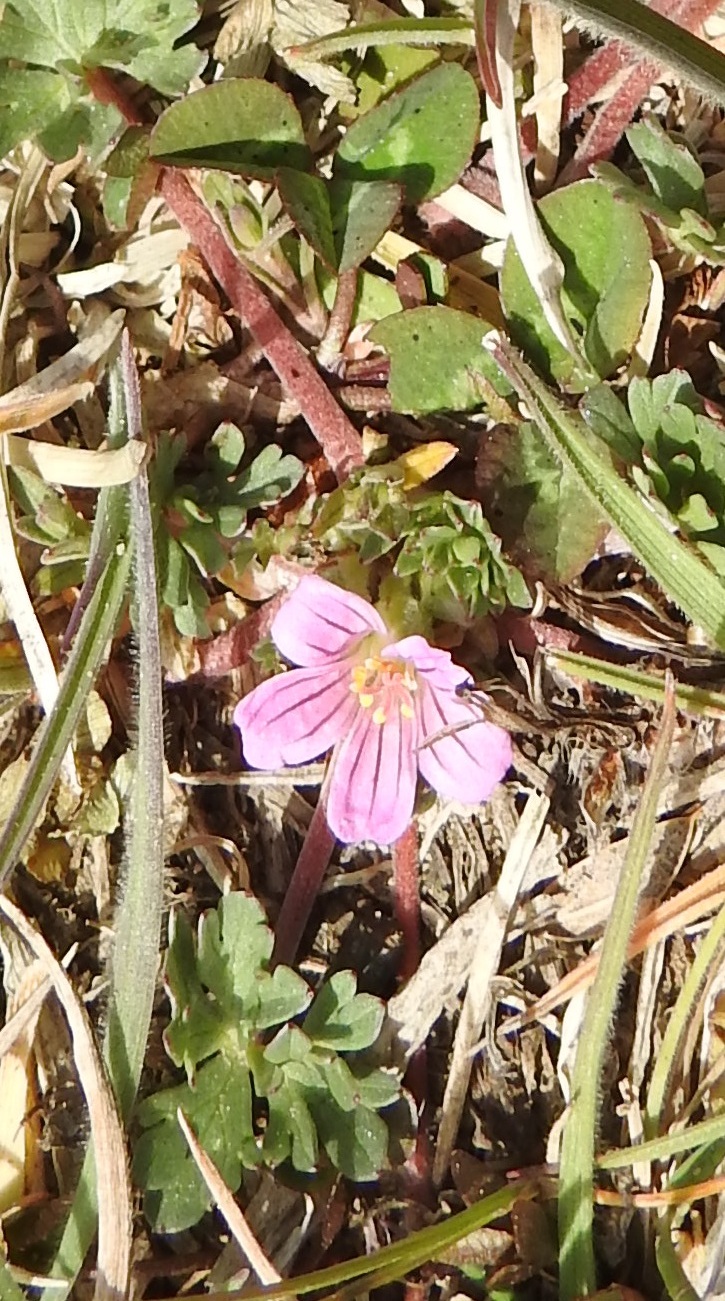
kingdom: Plantae
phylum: Tracheophyta
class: Magnoliopsida
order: Geraniales
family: Geraniaceae
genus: Geranium
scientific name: Geranium sessiliflorum
